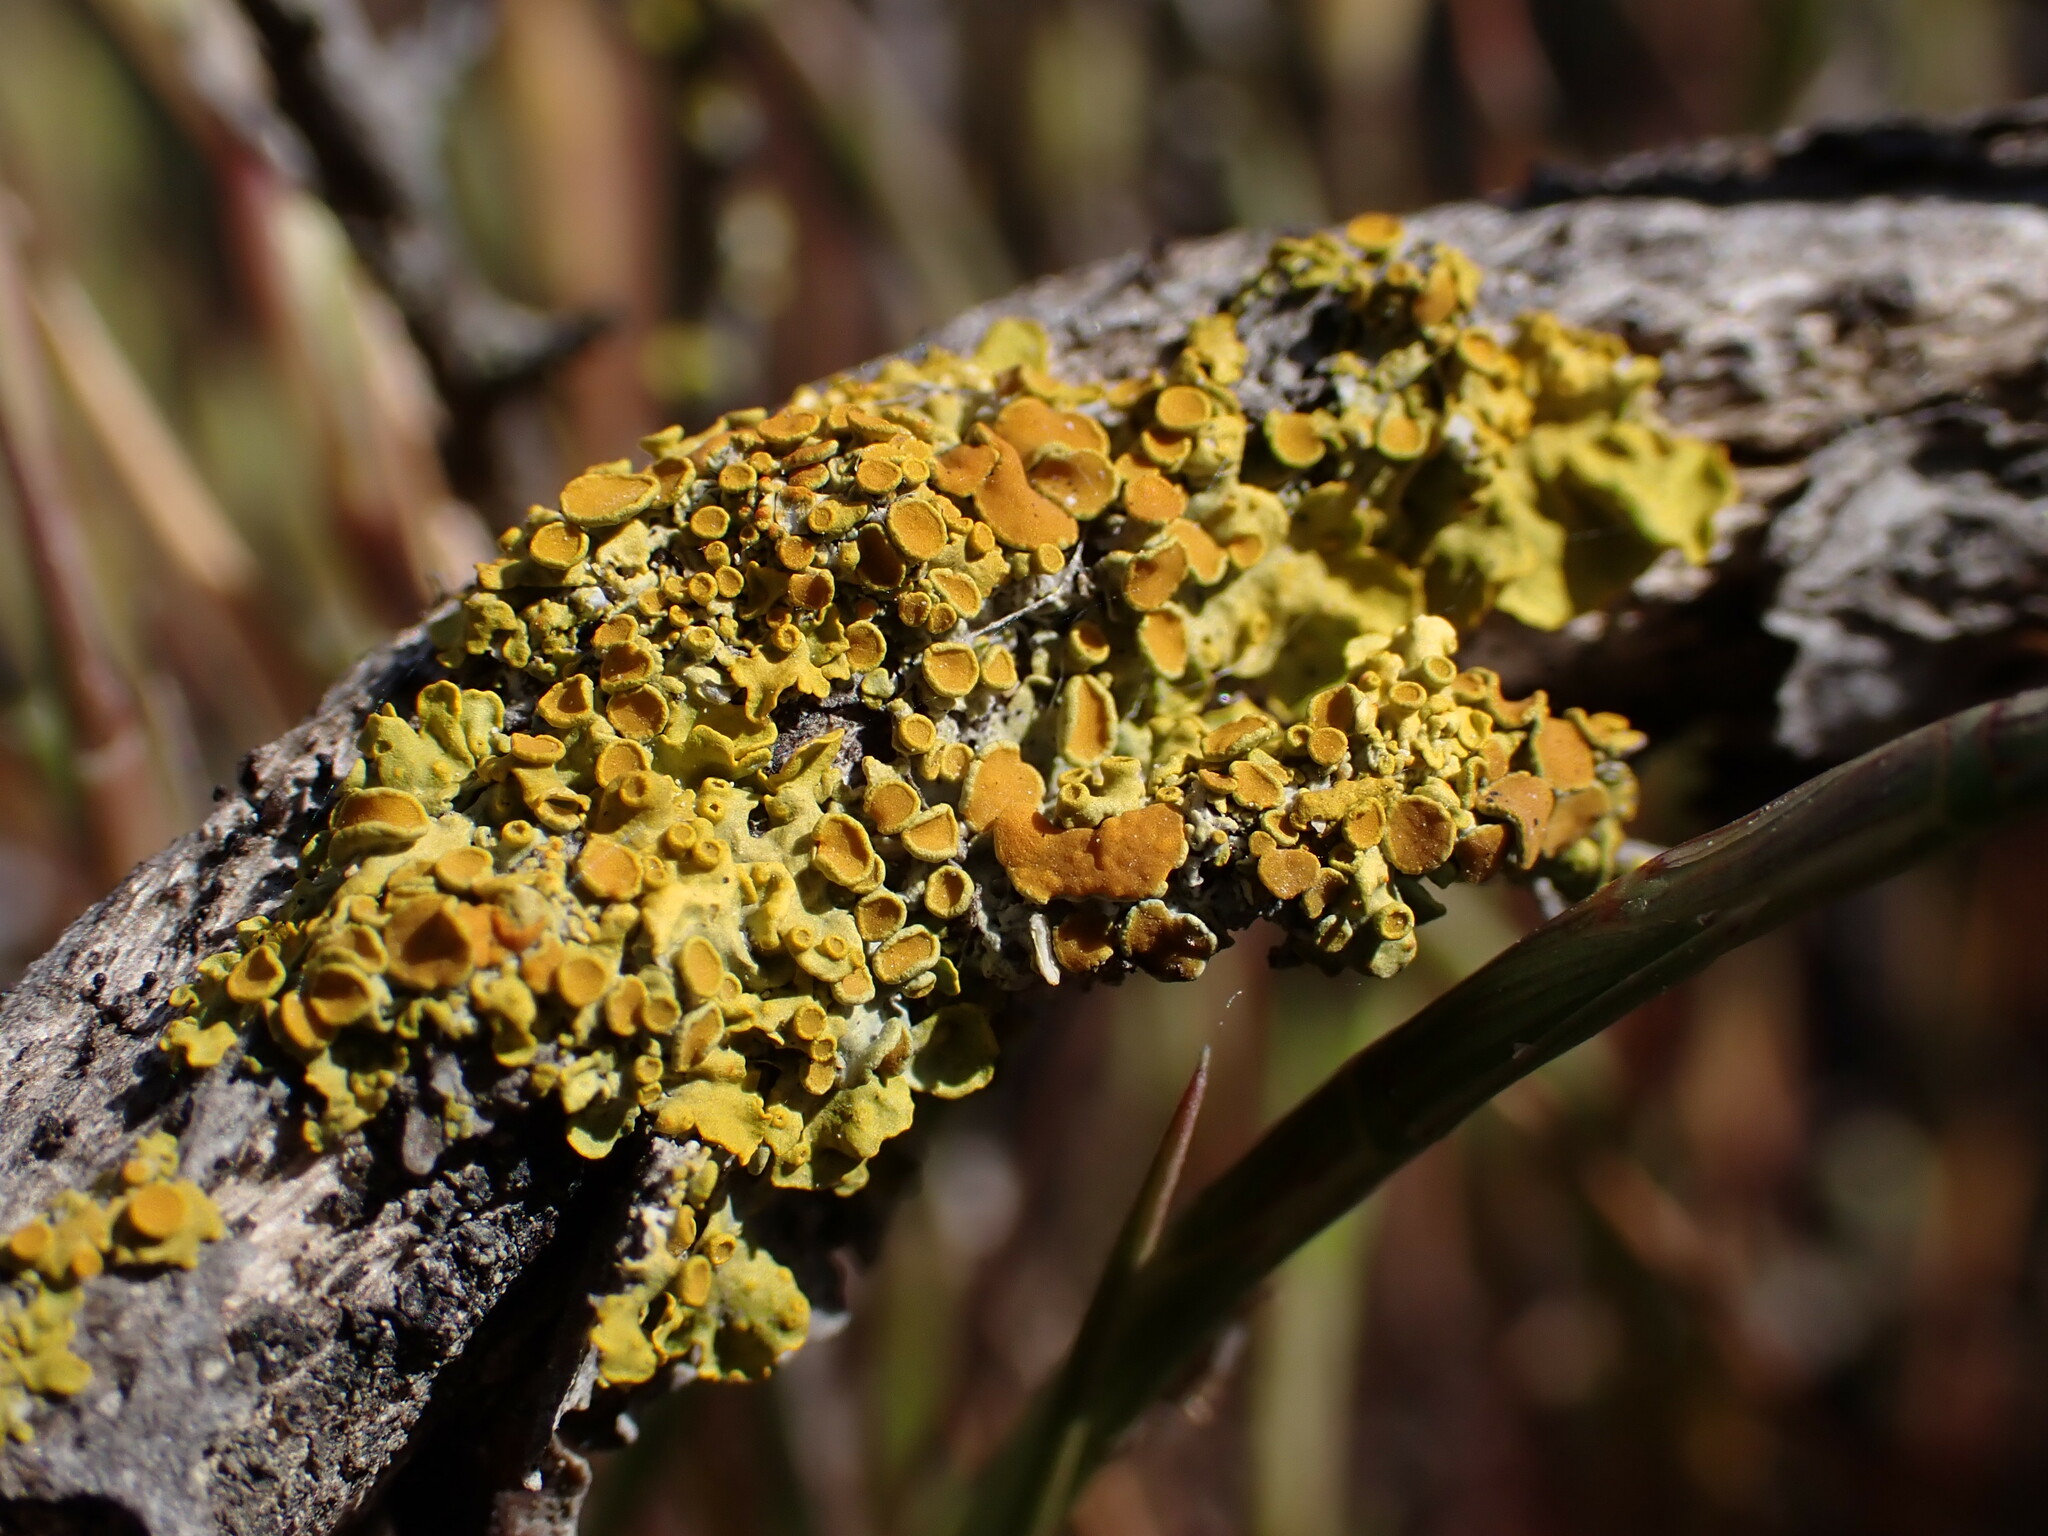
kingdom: Fungi
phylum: Ascomycota
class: Lecanoromycetes
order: Teloschistales
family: Teloschistaceae
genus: Xanthoria
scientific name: Xanthoria parietina
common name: Common orange lichen
